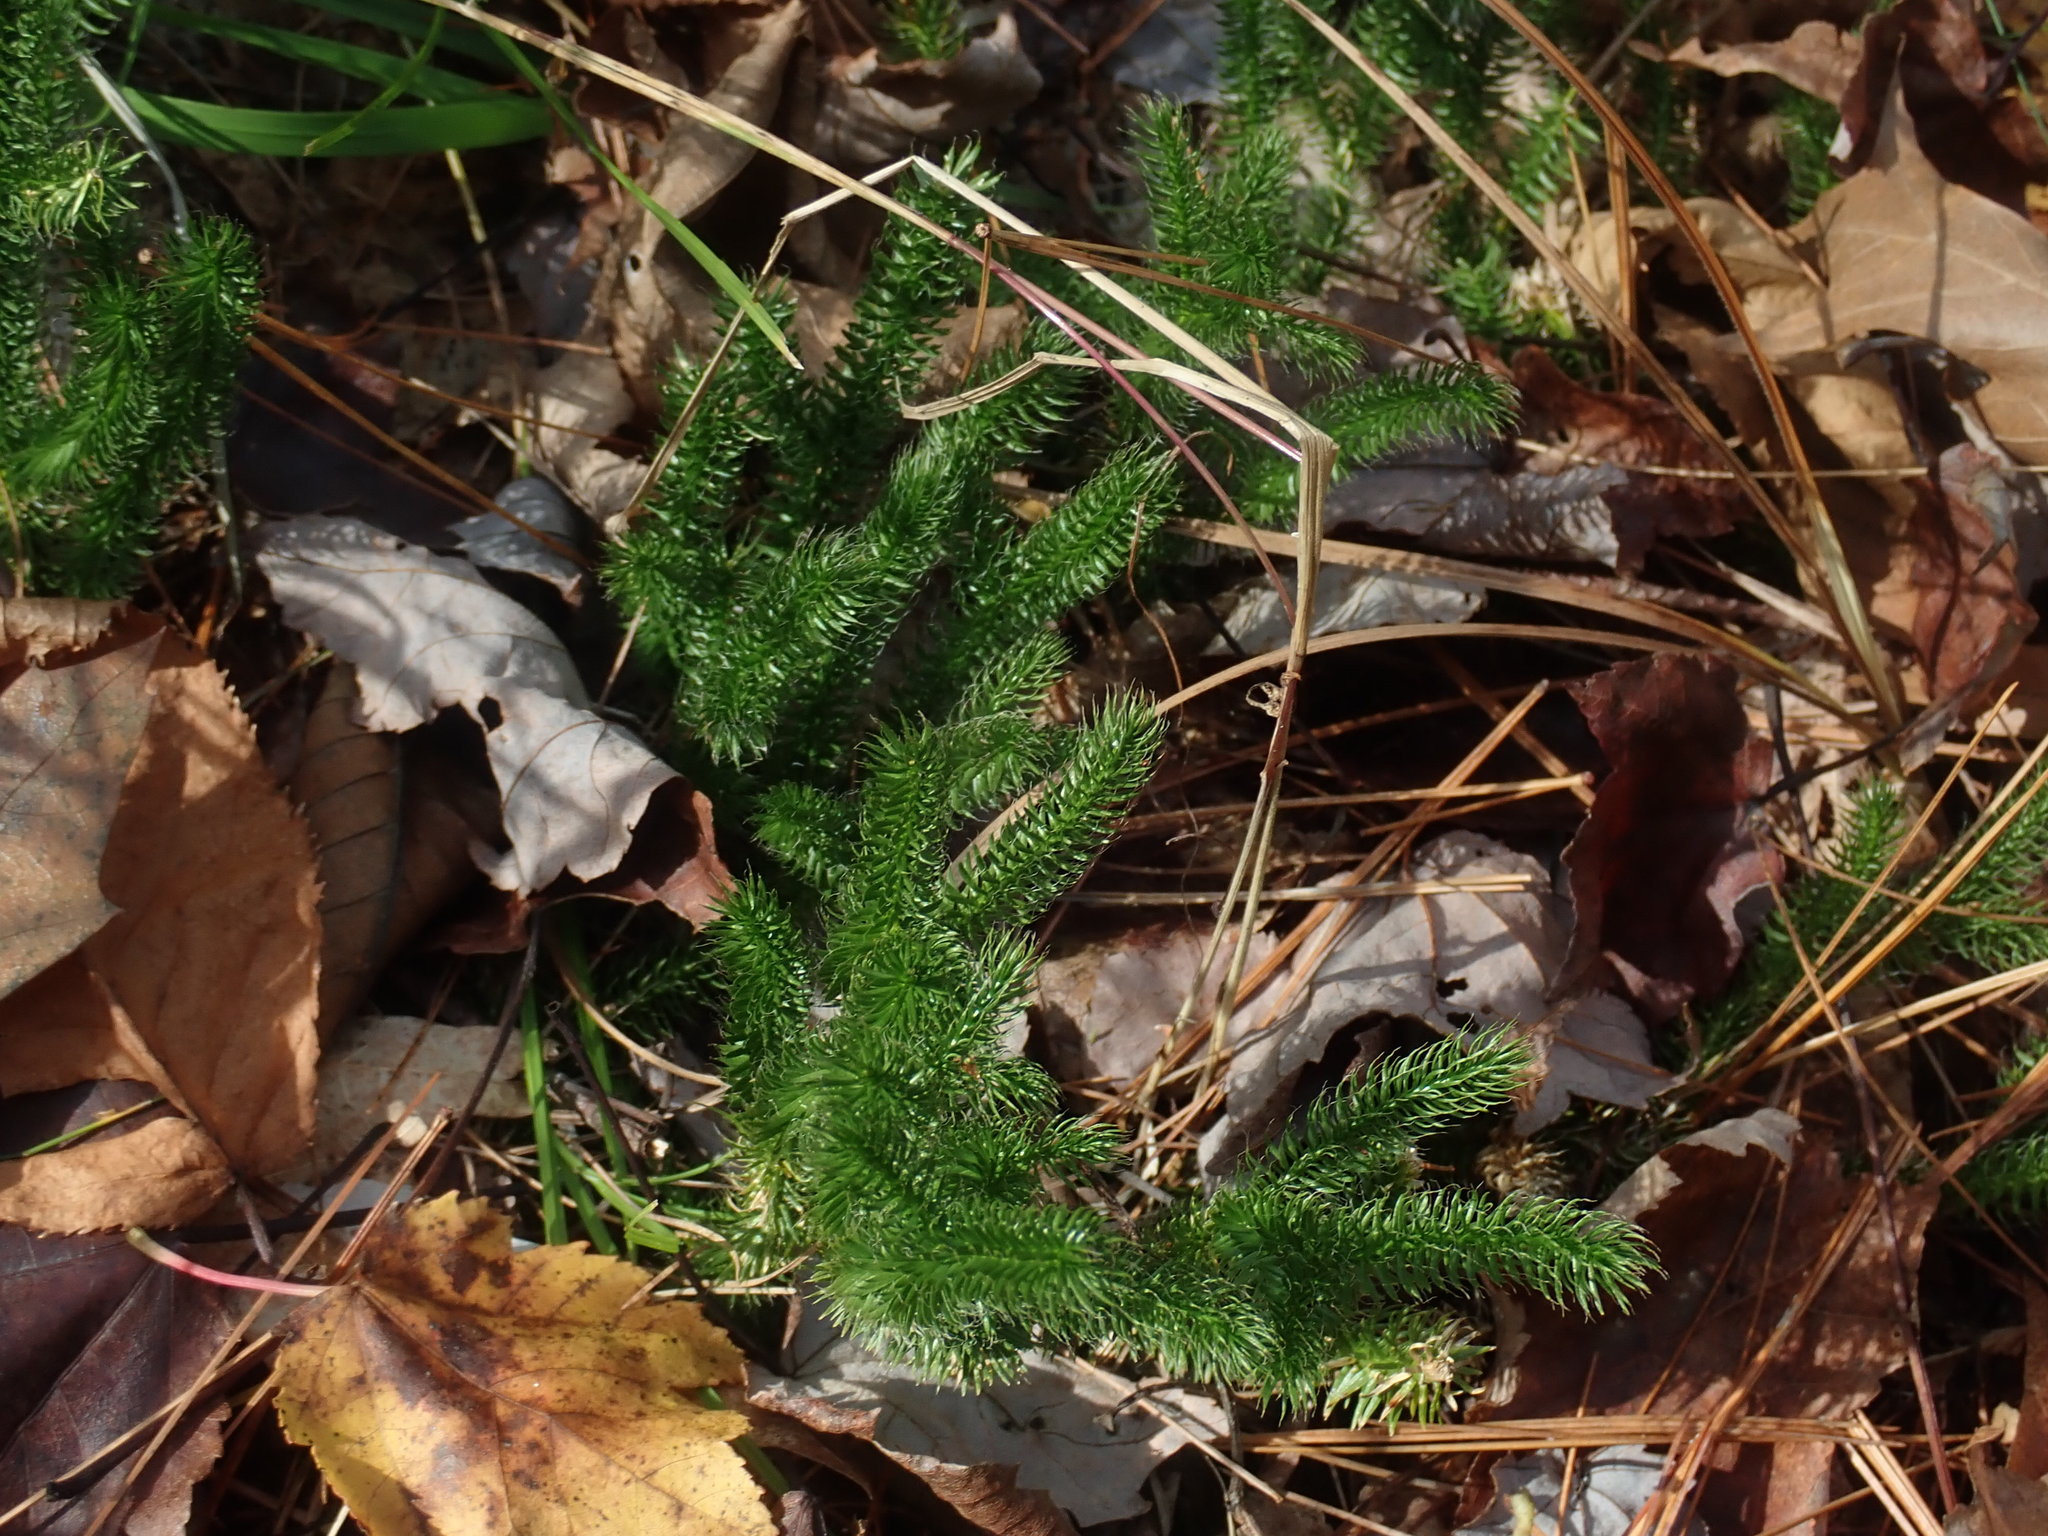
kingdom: Plantae
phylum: Tracheophyta
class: Lycopodiopsida
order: Lycopodiales
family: Lycopodiaceae
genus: Lycopodium
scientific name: Lycopodium clavatum
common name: Stag's-horn clubmoss
